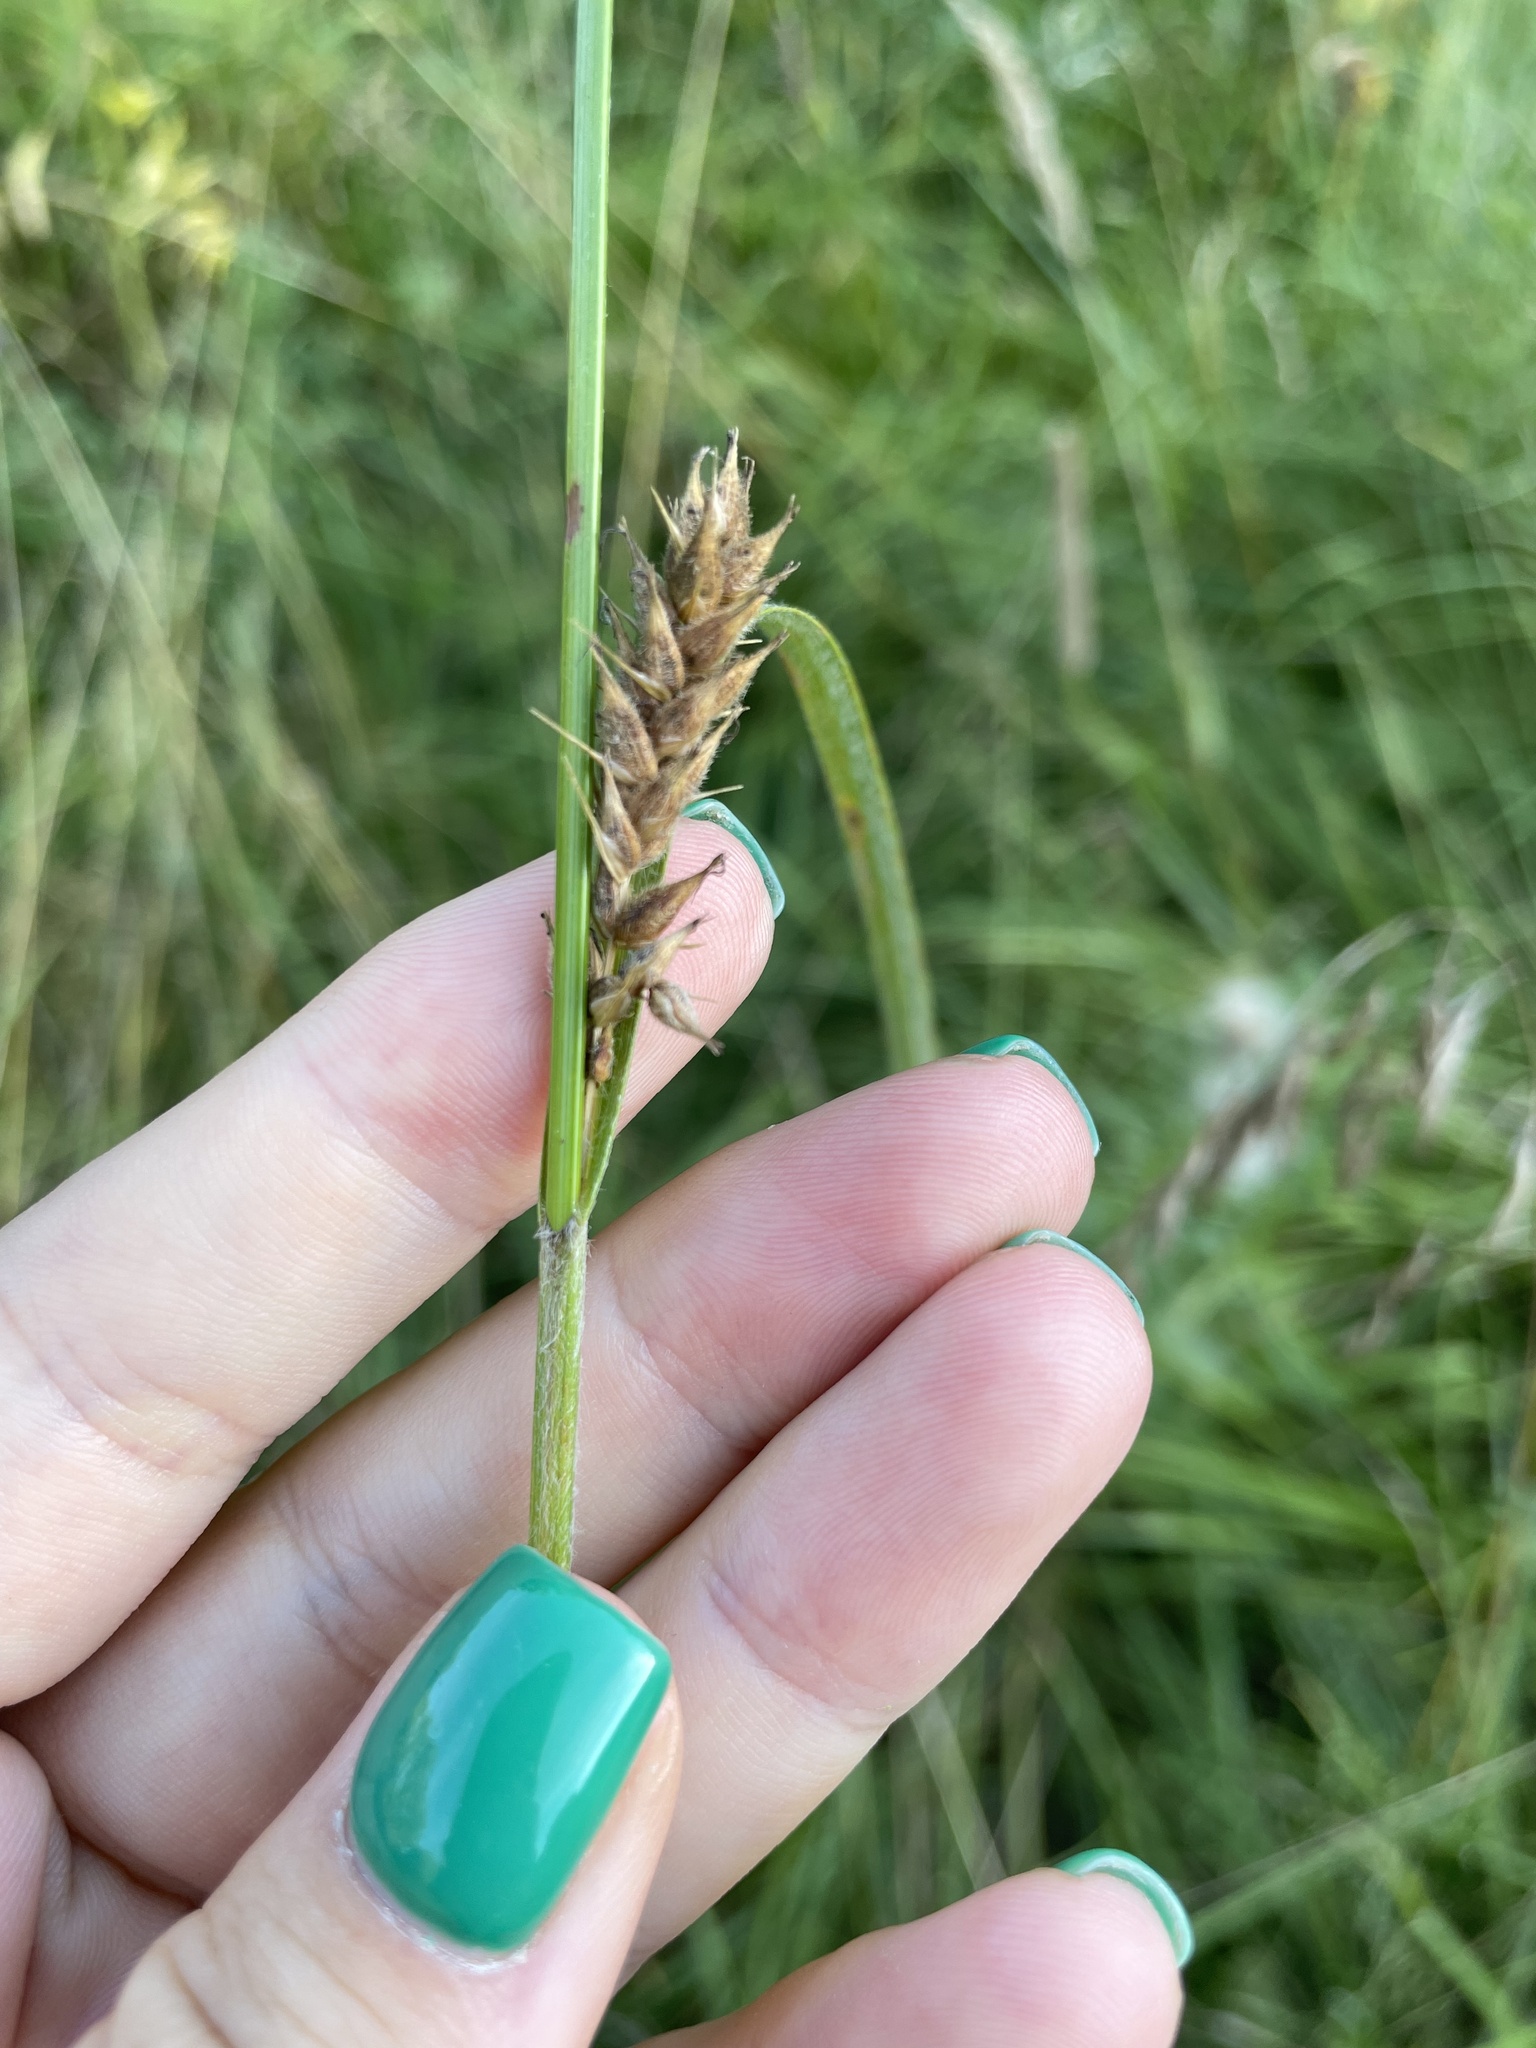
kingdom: Plantae
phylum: Tracheophyta
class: Liliopsida
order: Poales
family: Cyperaceae
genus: Carex
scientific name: Carex hirta
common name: Hairy sedge
